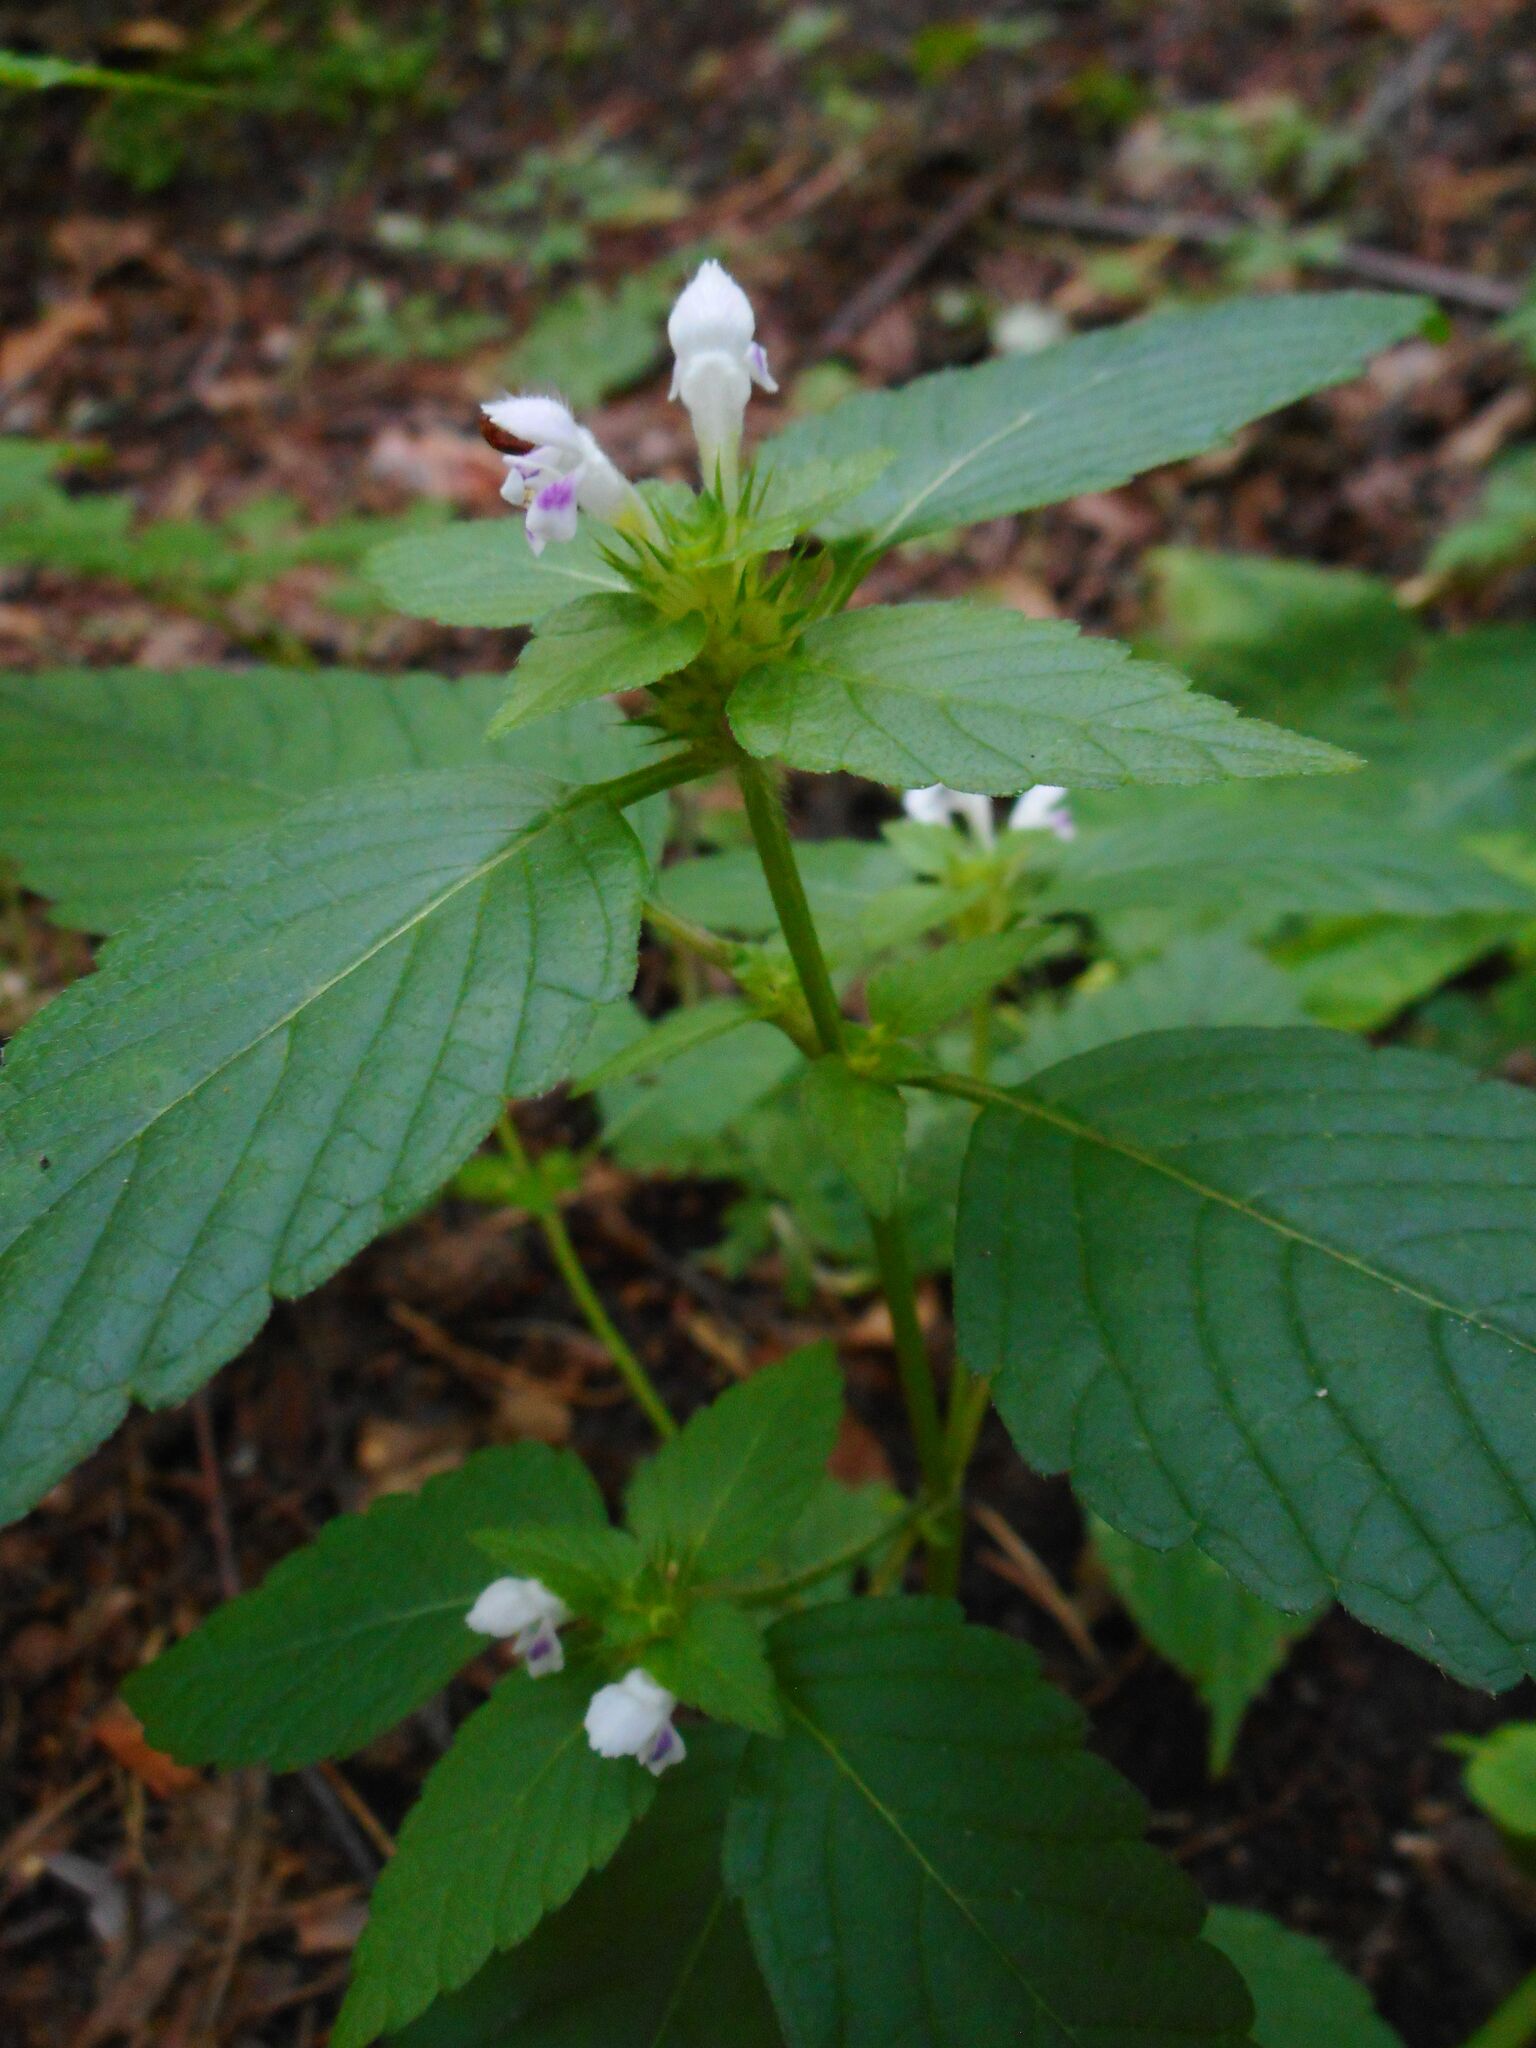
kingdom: Plantae
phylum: Tracheophyta
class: Magnoliopsida
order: Lamiales
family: Lamiaceae
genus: Galeopsis
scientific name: Galeopsis tetrahit
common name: Common hemp-nettle
